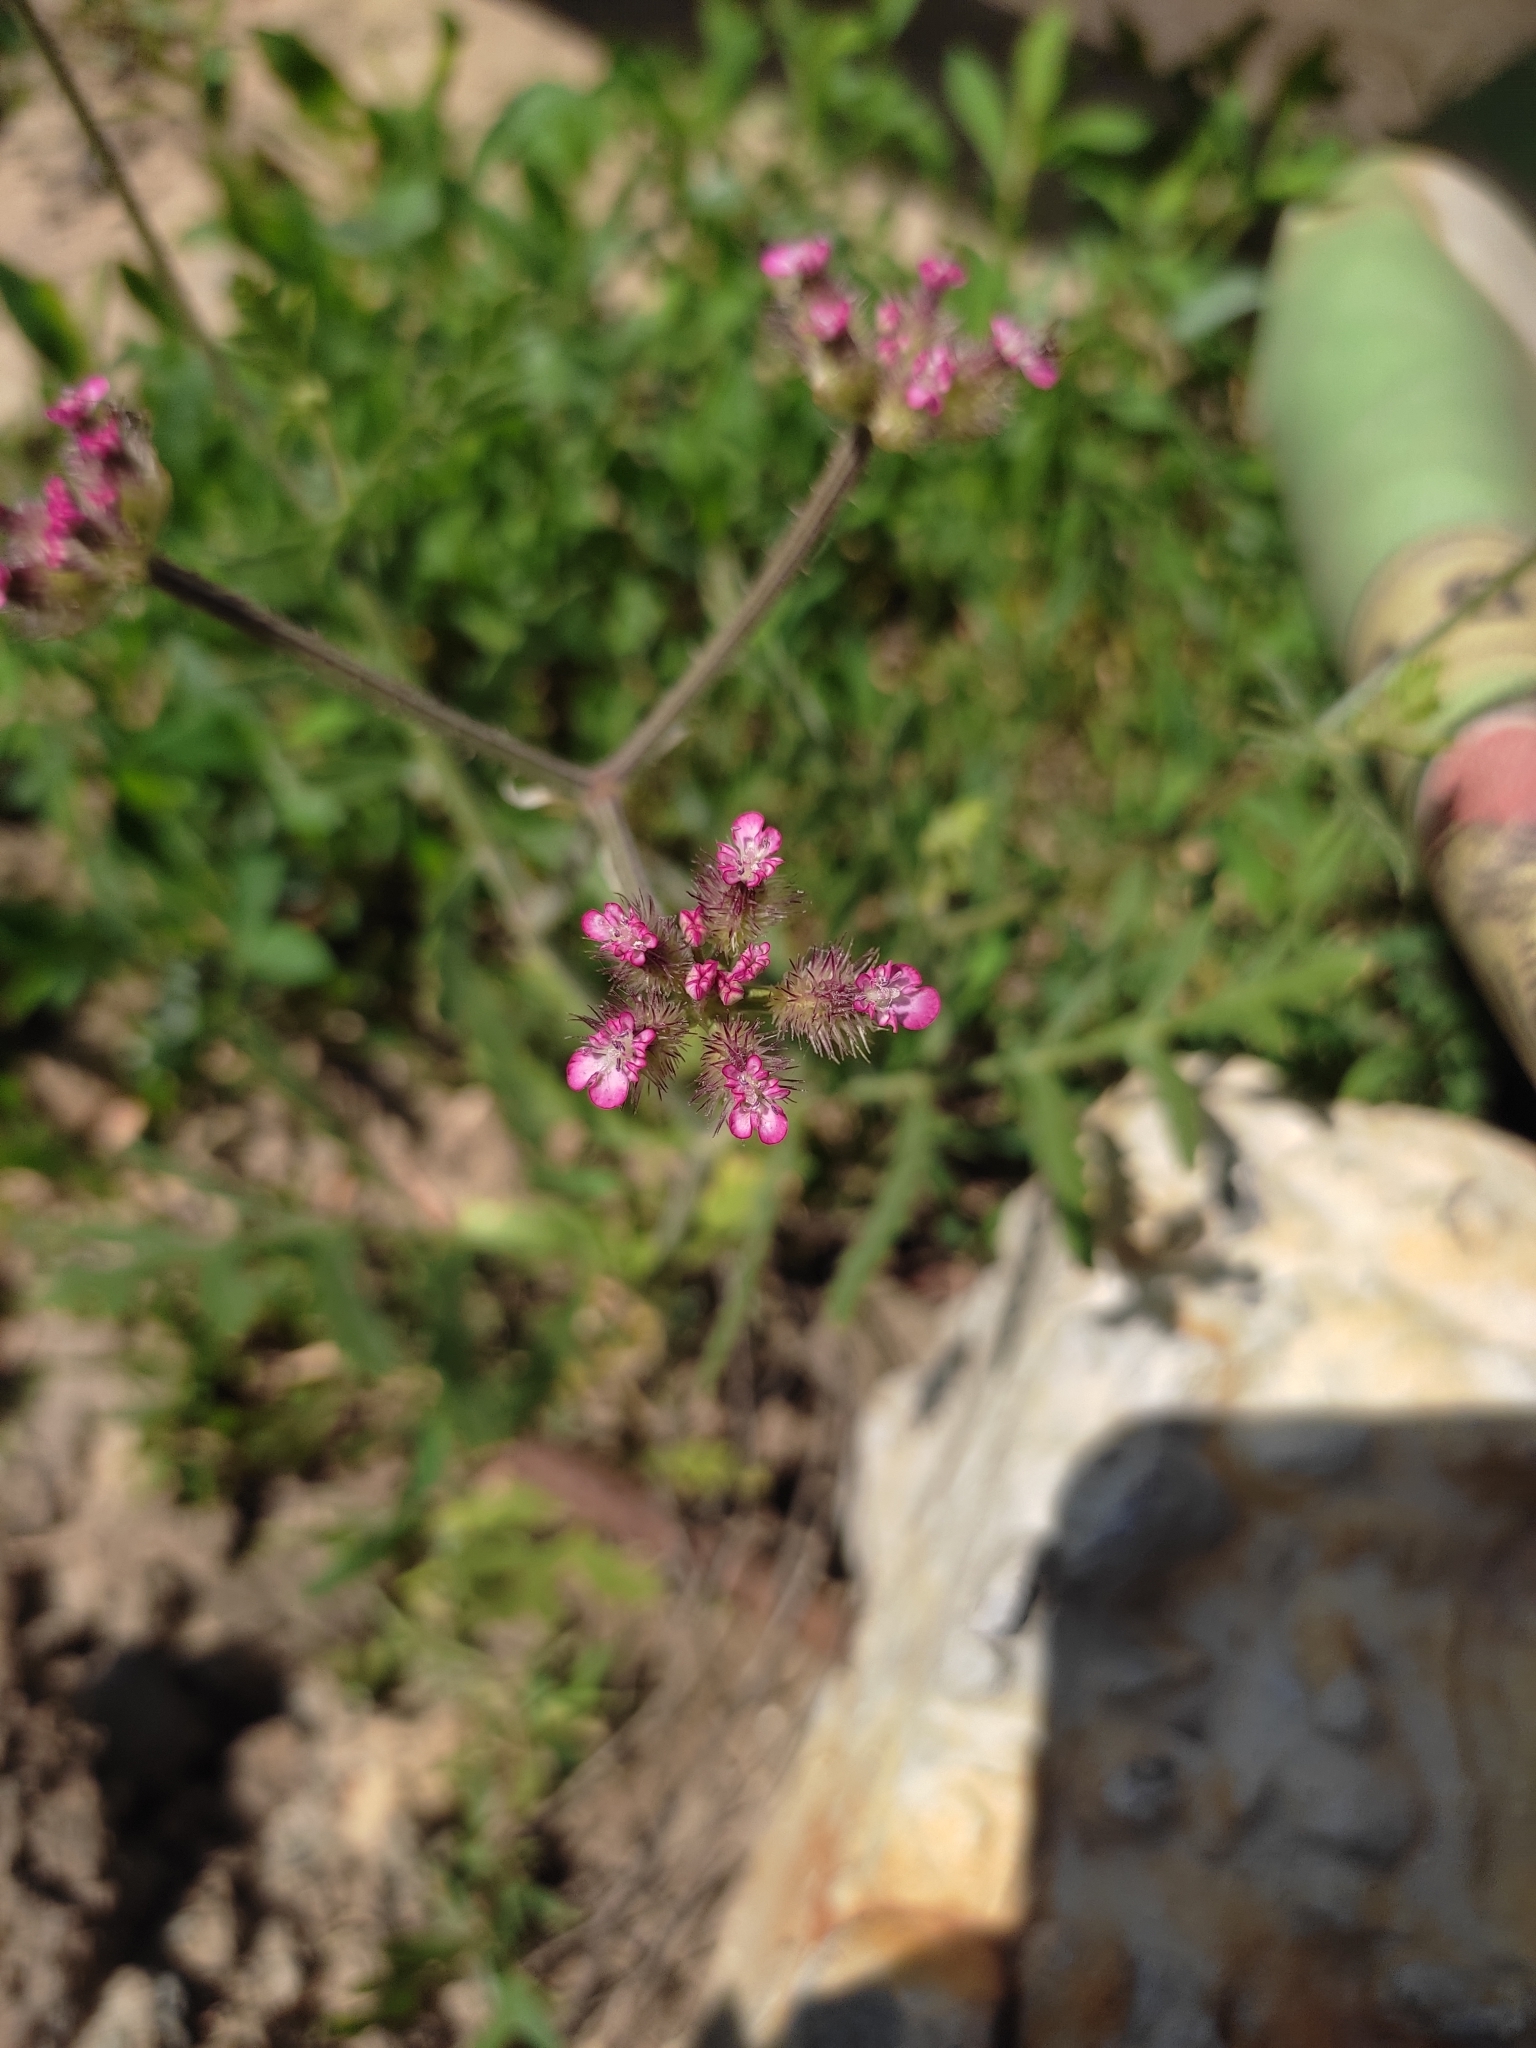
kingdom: Plantae
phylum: Tracheophyta
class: Magnoliopsida
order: Apiales
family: Apiaceae
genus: Turgenia
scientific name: Turgenia latifolia
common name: Greater bur-parsley
